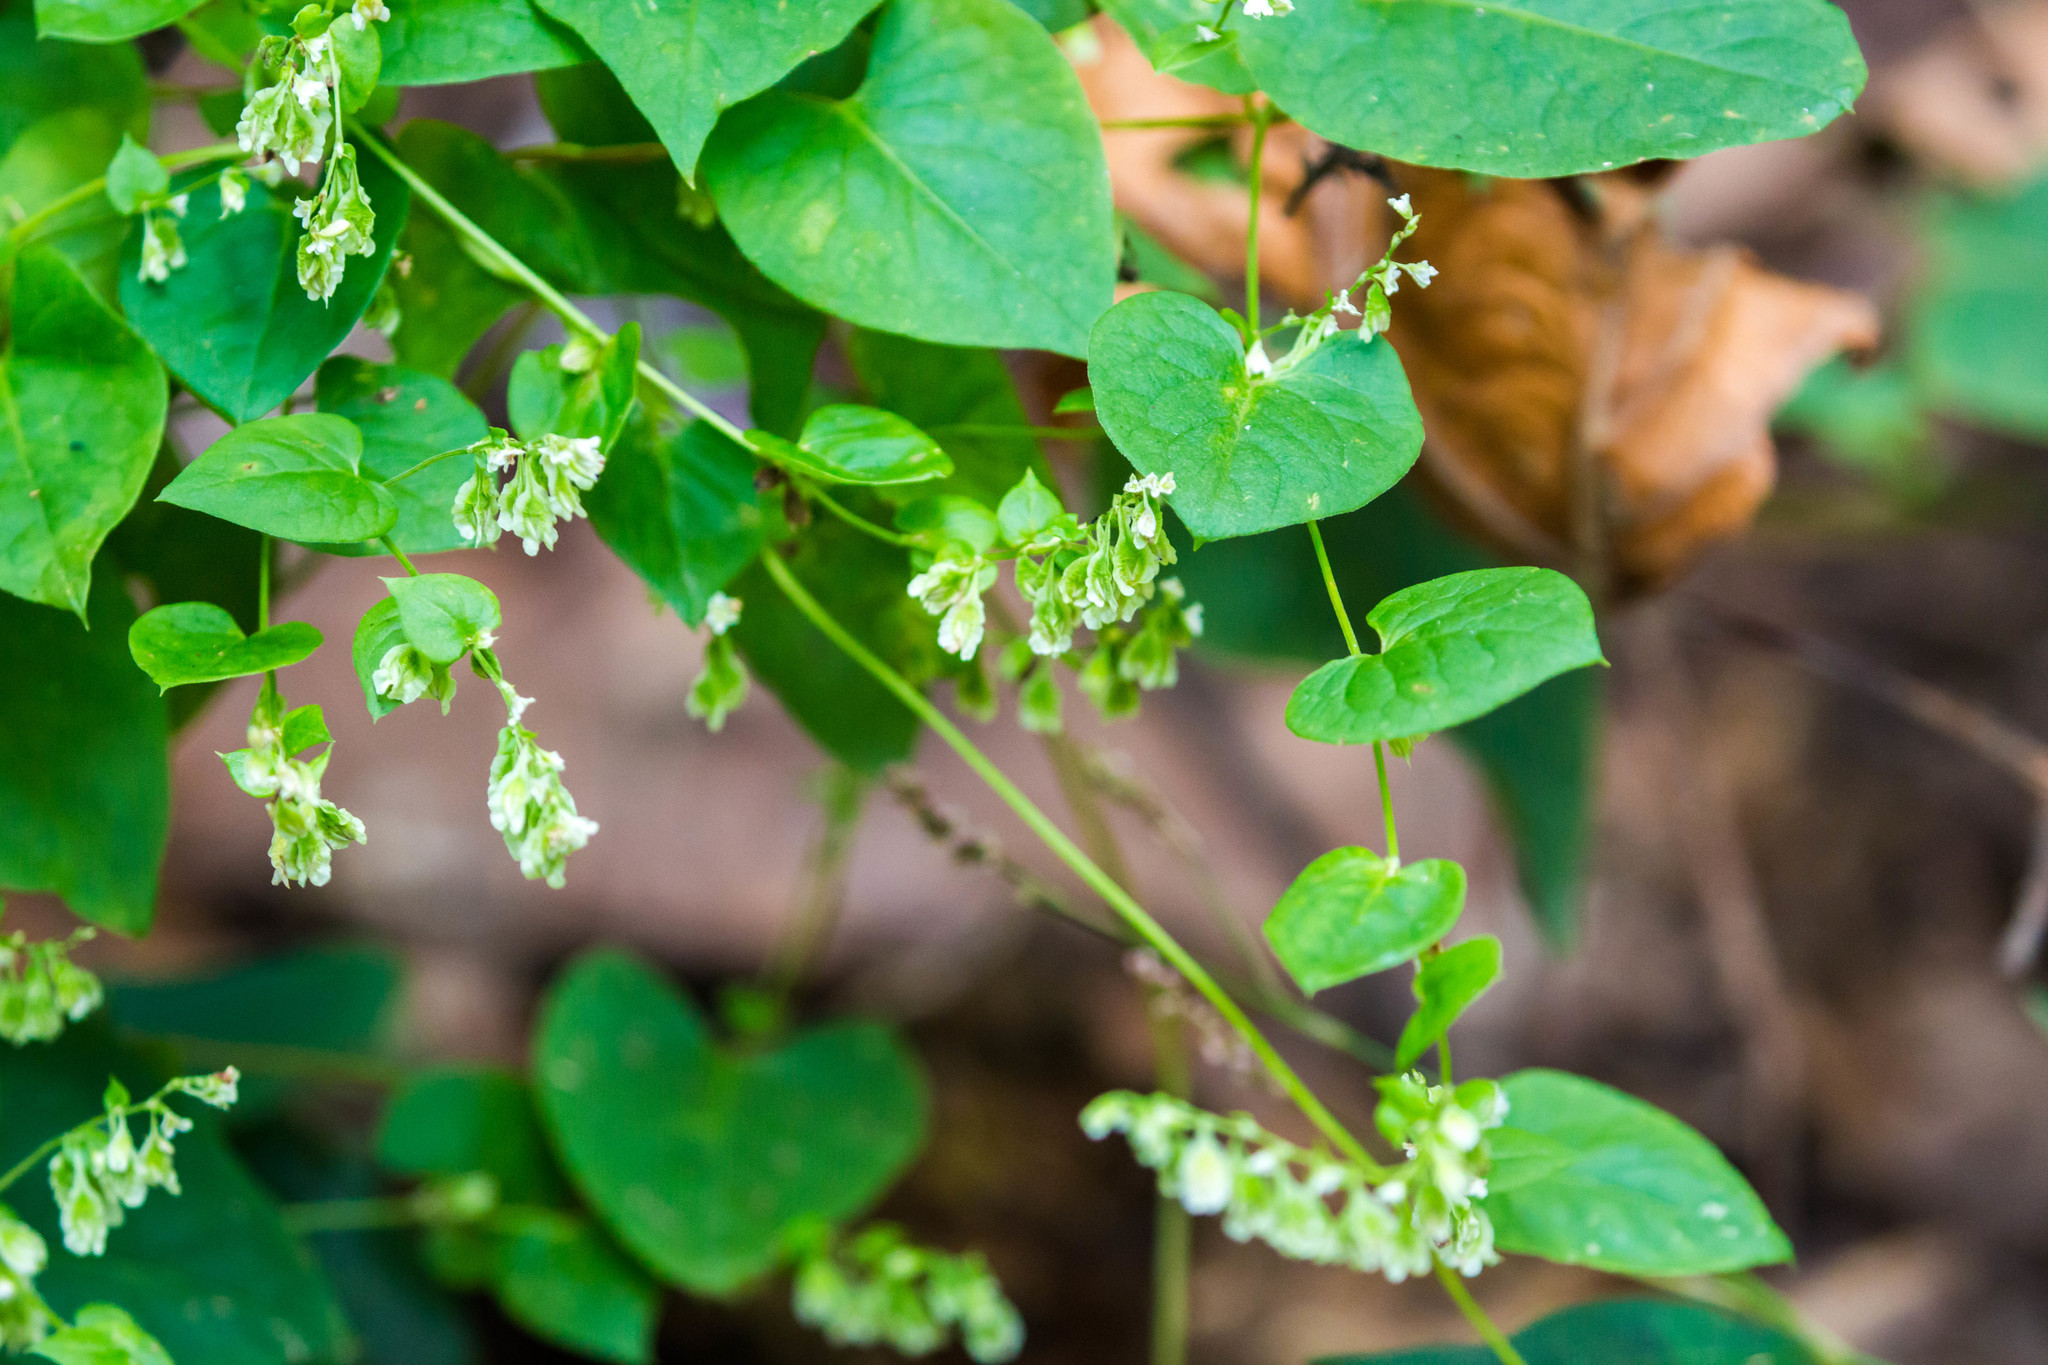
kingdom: Plantae
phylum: Tracheophyta
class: Magnoliopsida
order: Caryophyllales
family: Polygonaceae
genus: Fallopia
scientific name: Fallopia scandens
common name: Climbing false buckwheat
